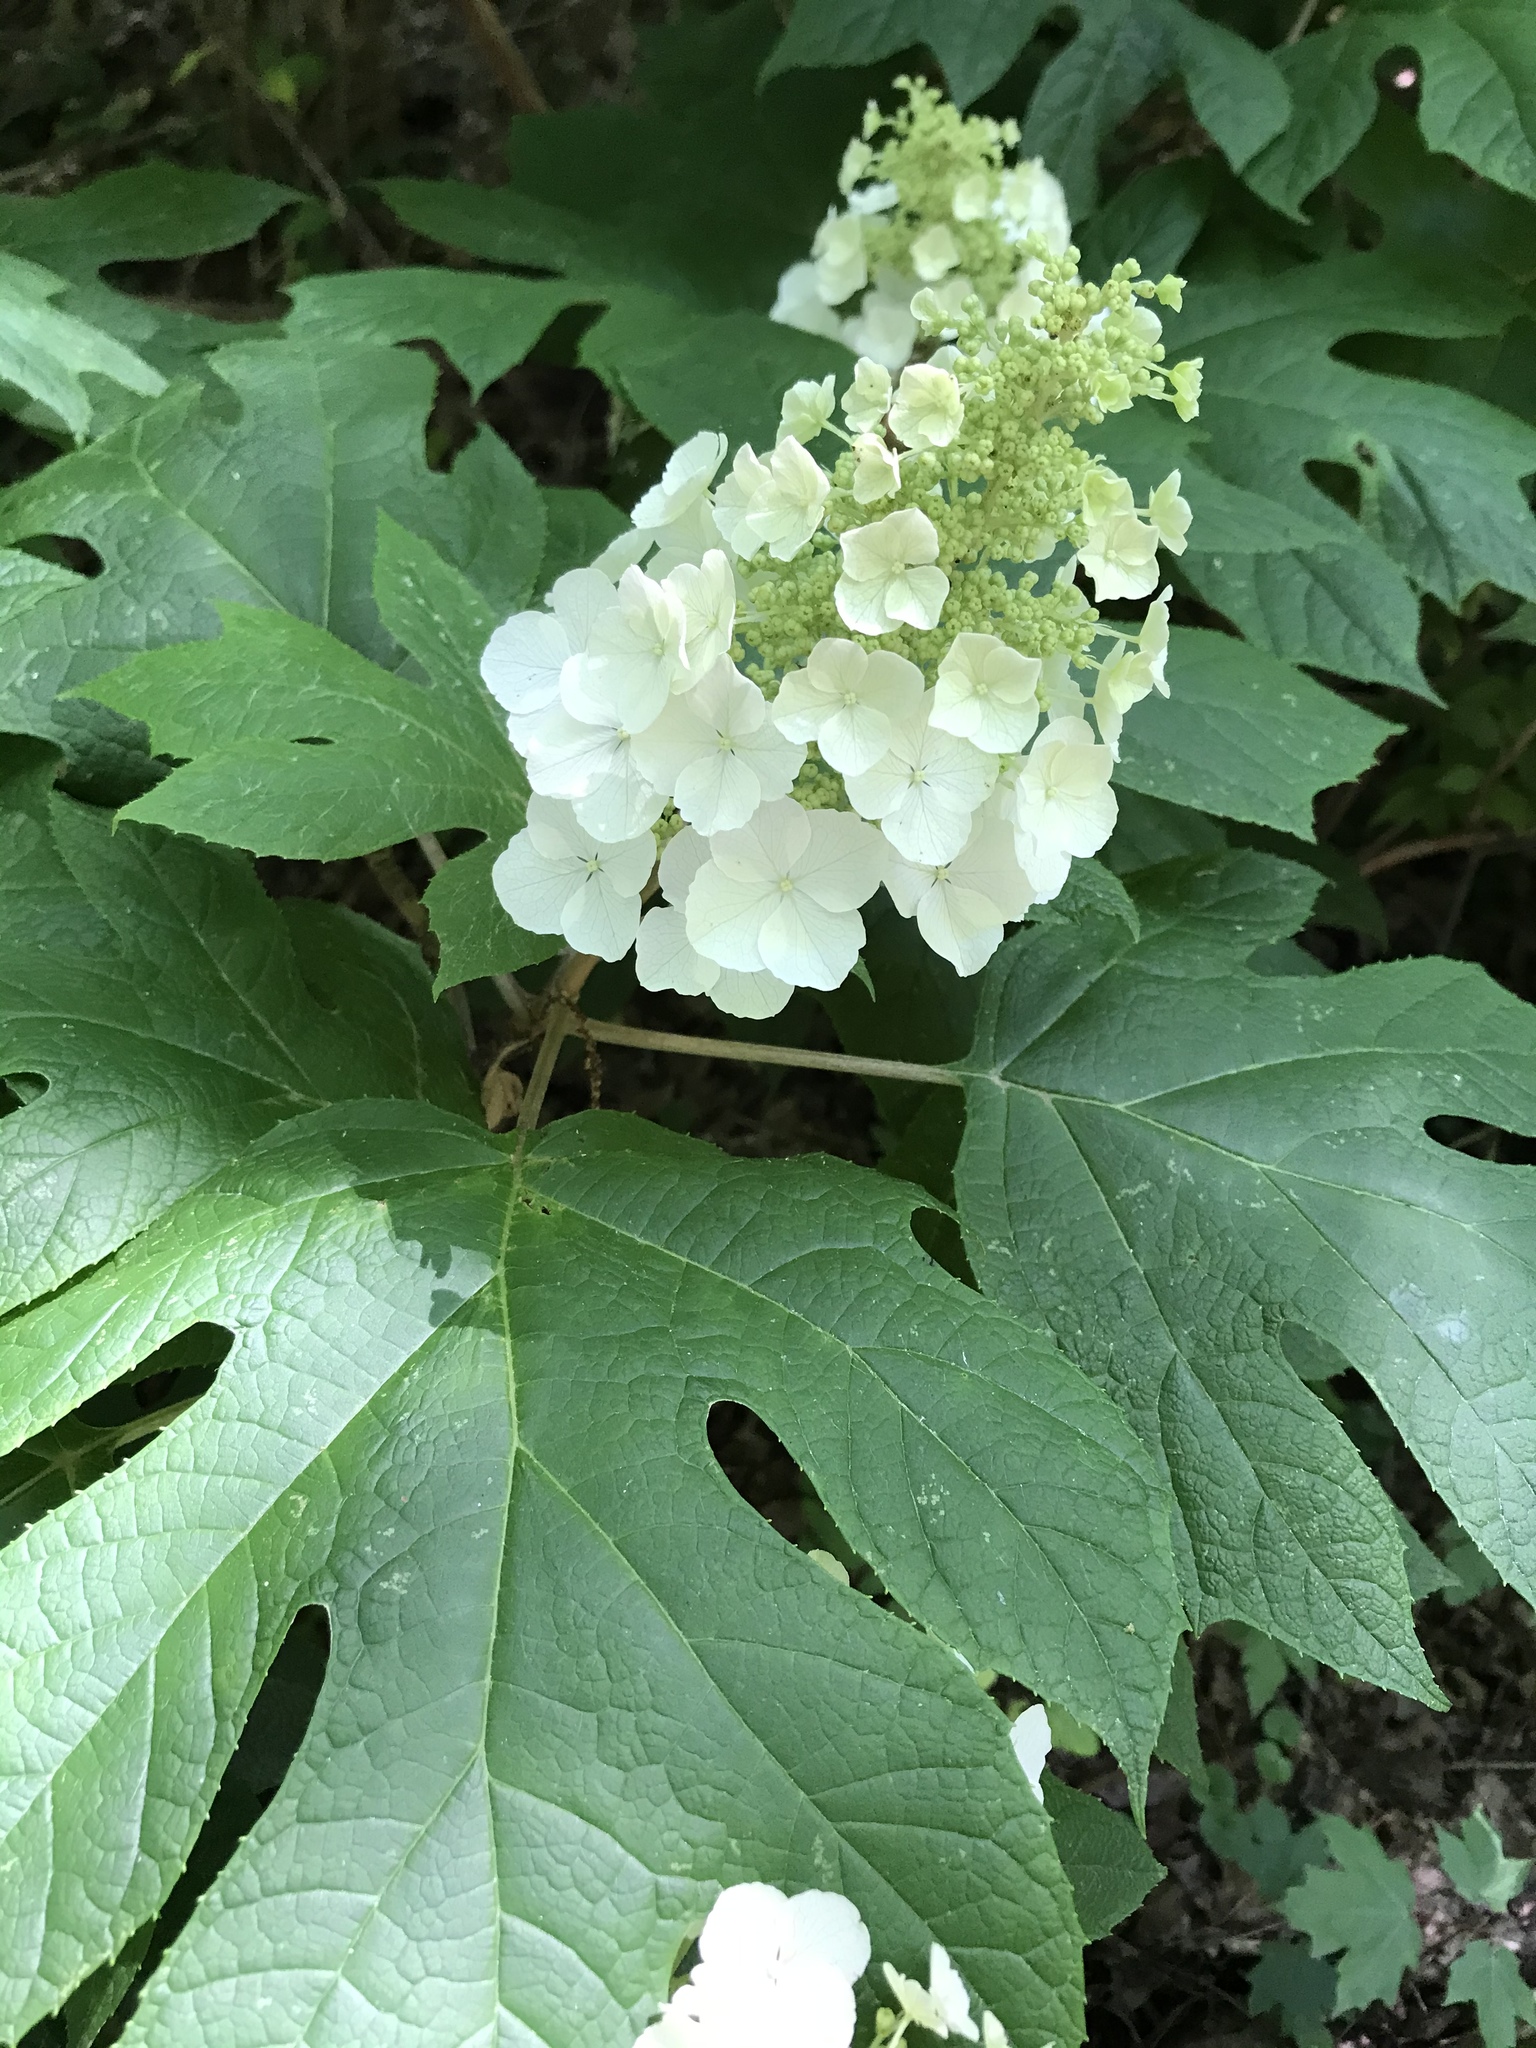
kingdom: Plantae
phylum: Tracheophyta
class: Magnoliopsida
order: Cornales
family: Hydrangeaceae
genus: Hydrangea
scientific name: Hydrangea quercifolia
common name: Oak-leaf hydrangea
